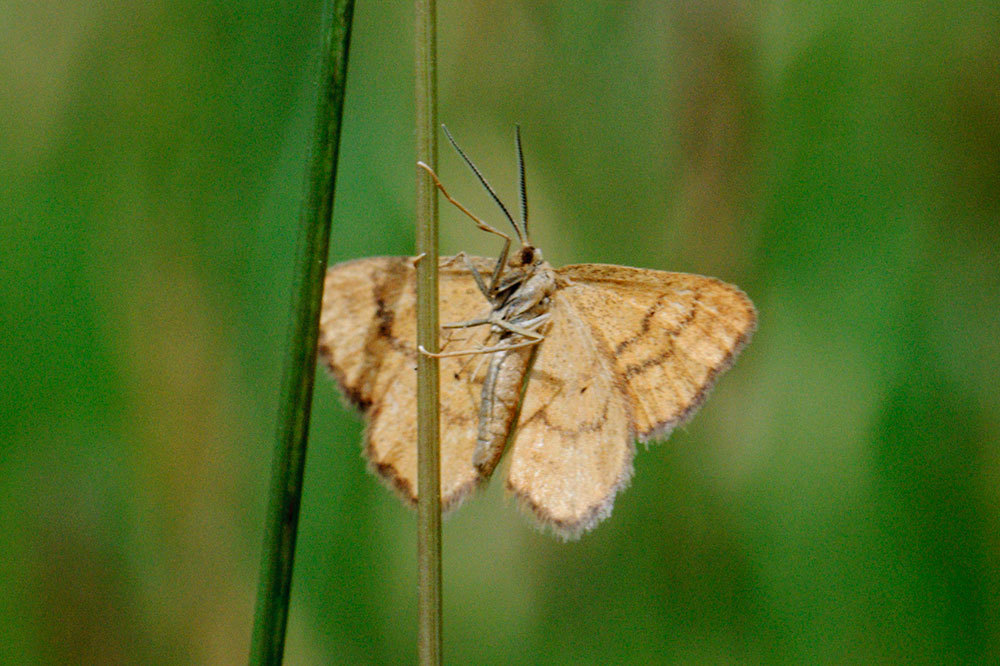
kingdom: Animalia
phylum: Arthropoda
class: Insecta
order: Lepidoptera
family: Geometridae
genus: Idaea
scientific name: Idaea serpentata
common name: Ochraceous wave
